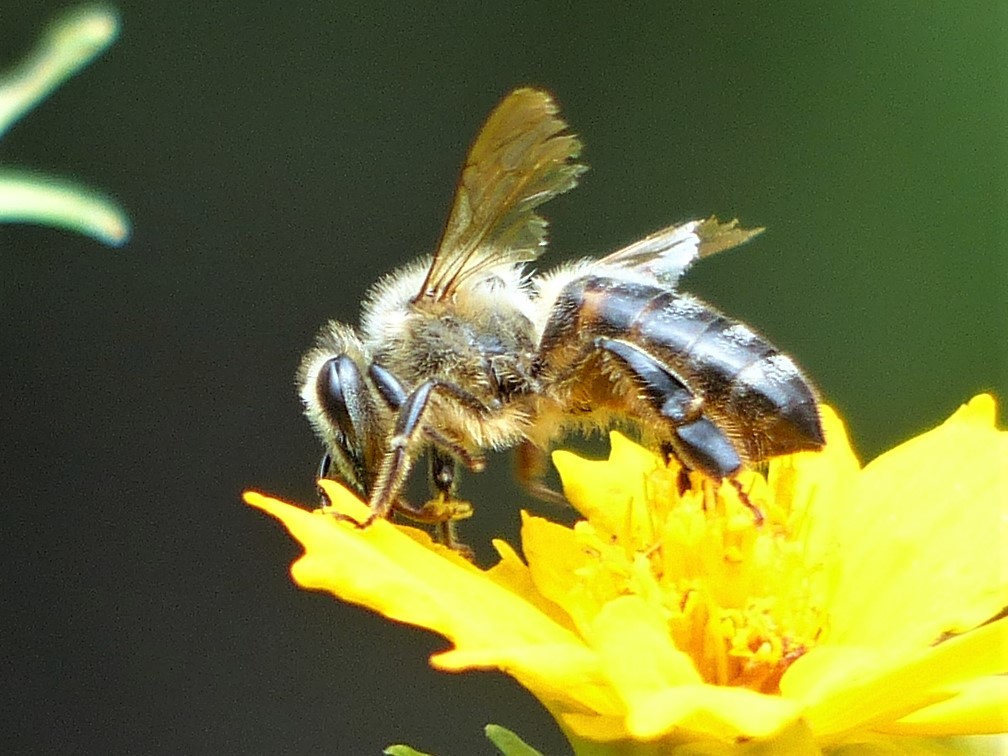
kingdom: Animalia
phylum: Arthropoda
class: Insecta
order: Hymenoptera
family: Apidae
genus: Apis
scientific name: Apis mellifera
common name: Honey bee
